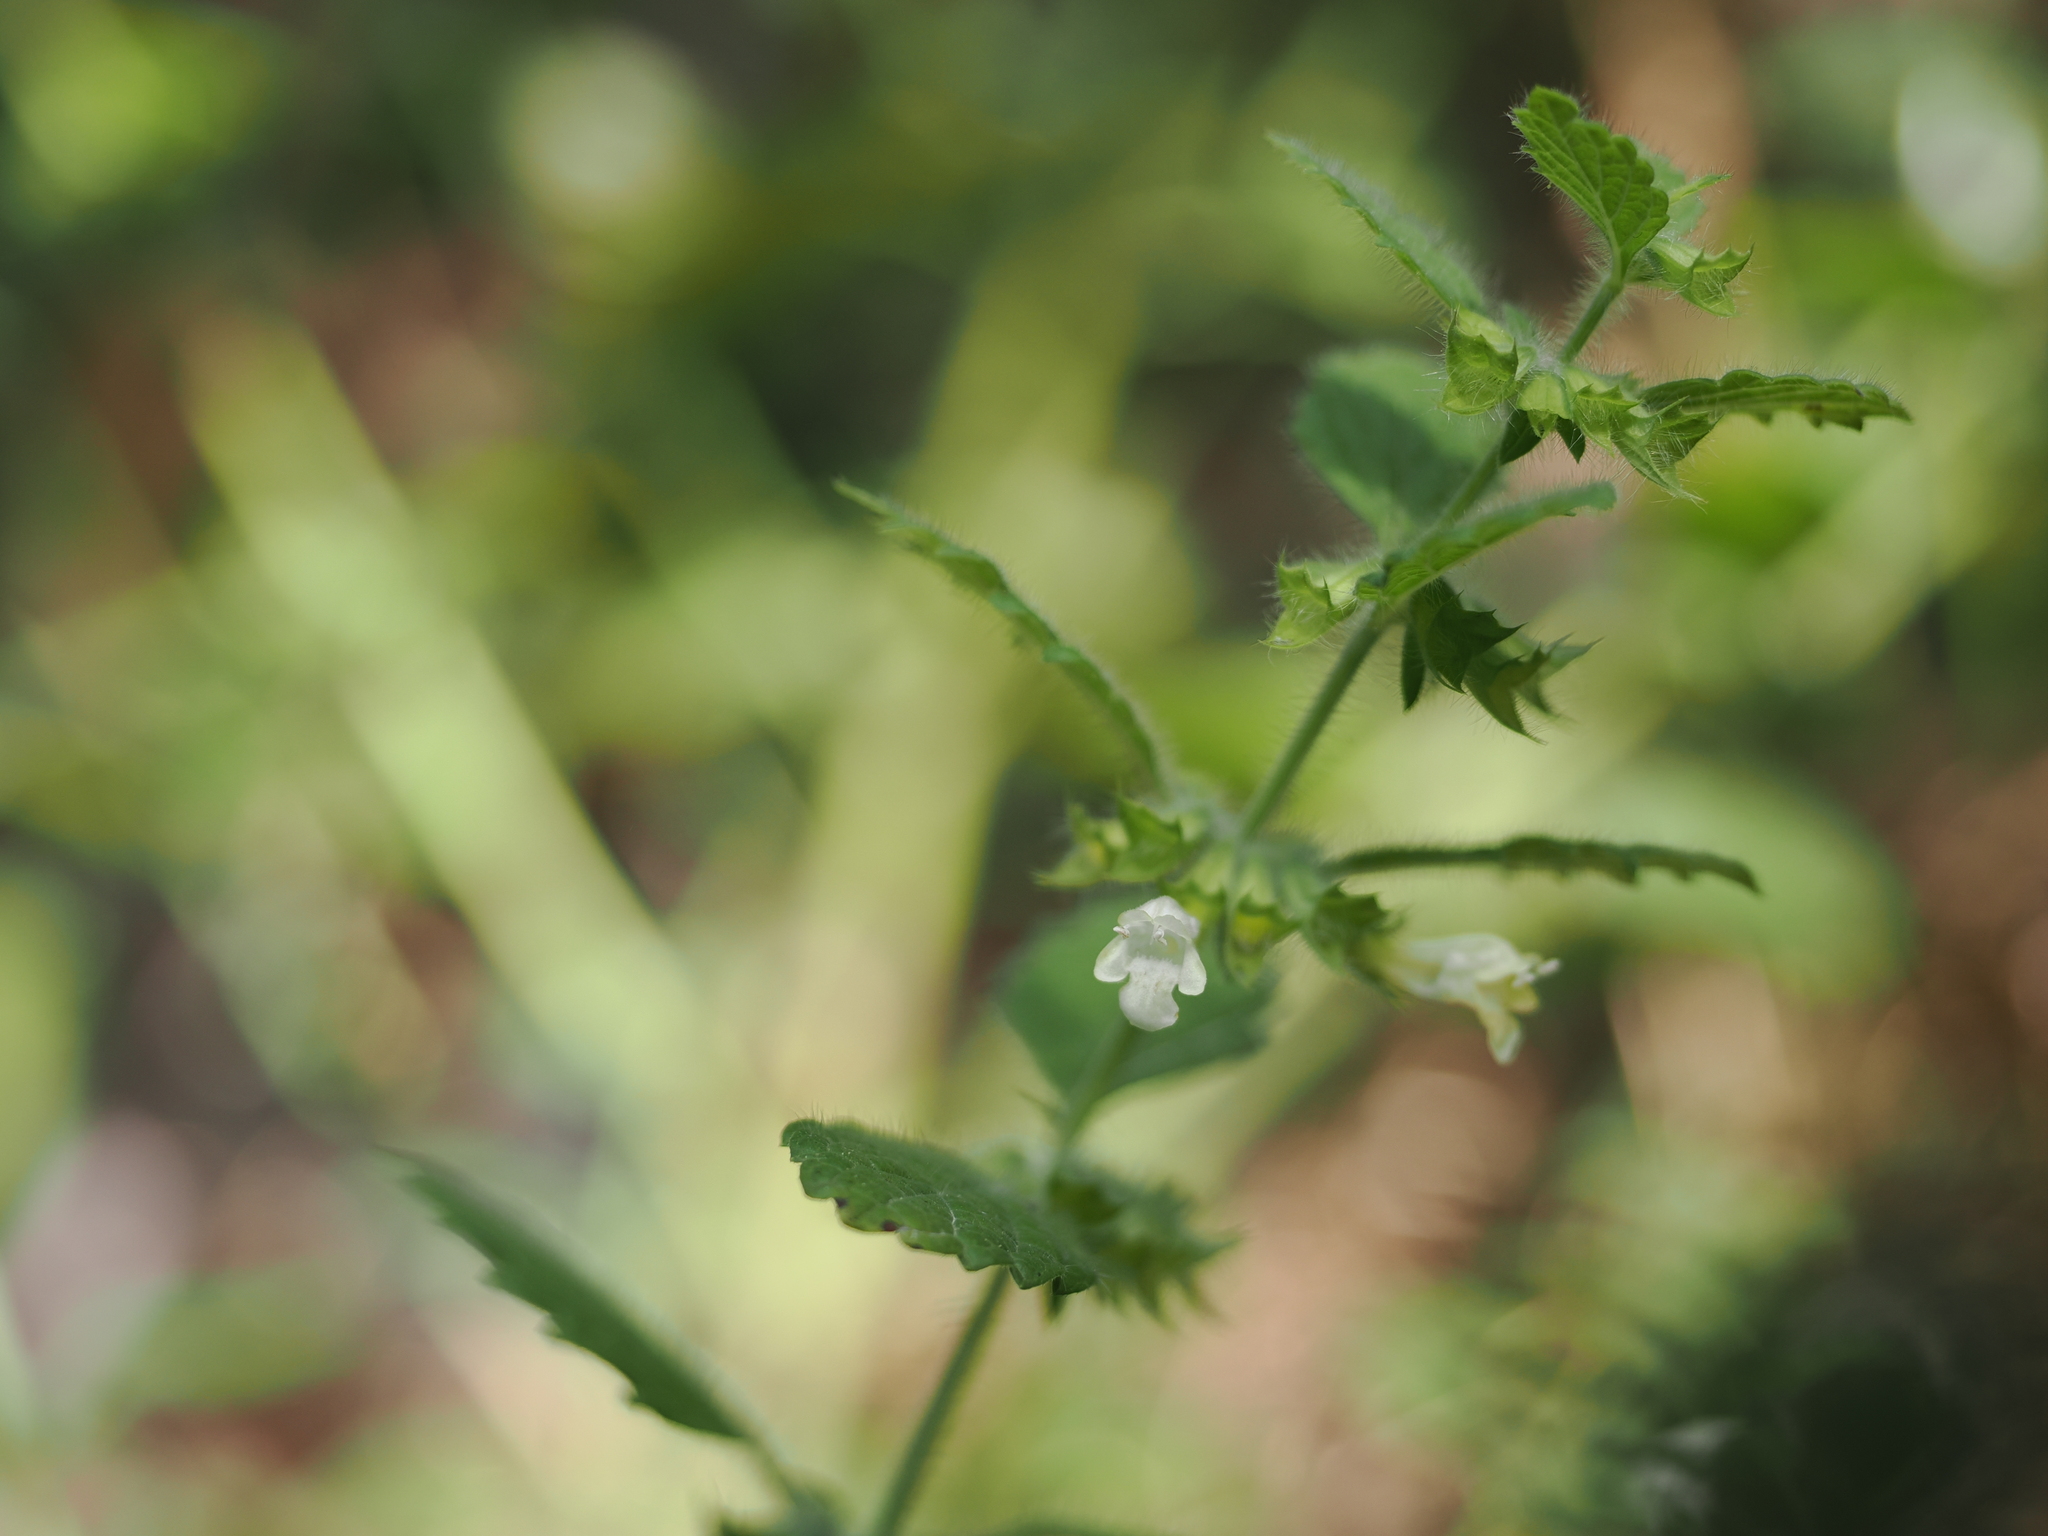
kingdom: Plantae
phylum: Tracheophyta
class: Magnoliopsida
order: Lamiales
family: Lamiaceae
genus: Melissa
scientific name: Melissa officinalis
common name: Balm
